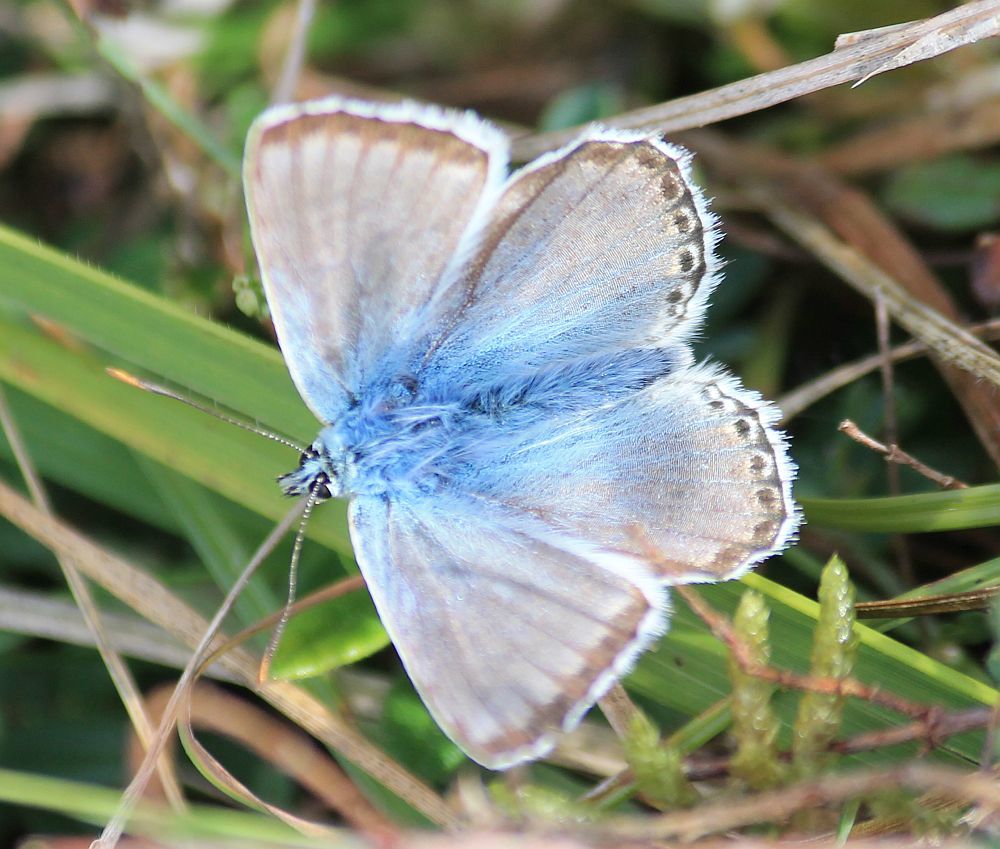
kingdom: Animalia
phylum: Arthropoda
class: Insecta
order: Lepidoptera
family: Lycaenidae
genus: Lysandra
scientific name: Lysandra coridon
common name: Chalkhill blue
